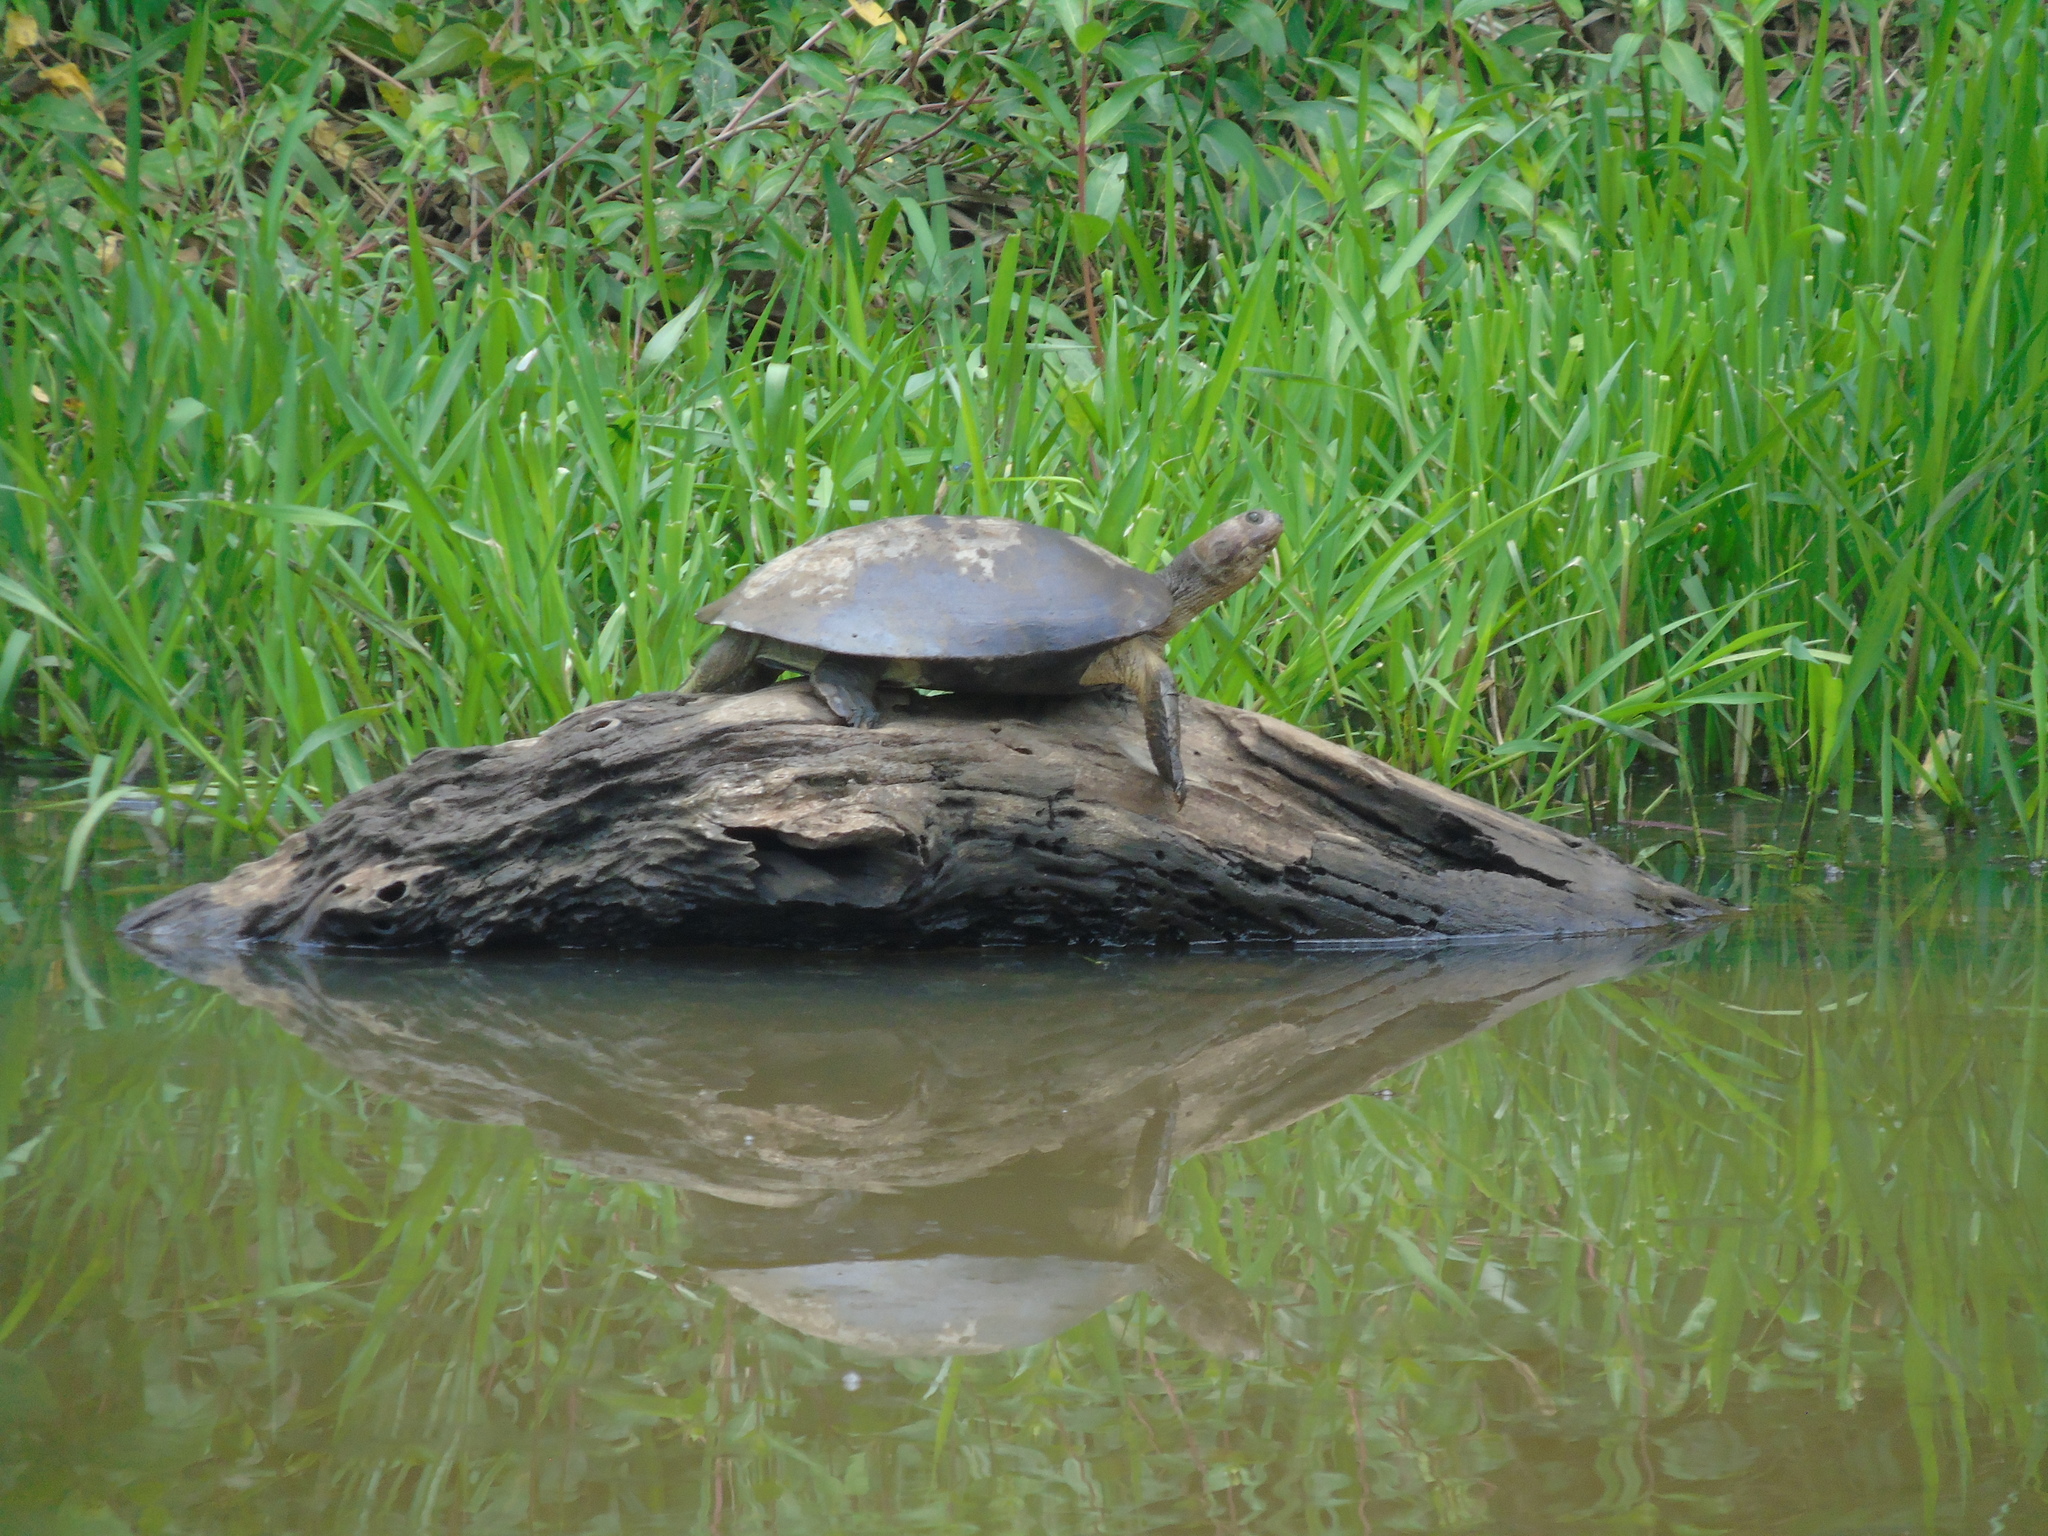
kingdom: Animalia
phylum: Chordata
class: Testudines
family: Podocnemididae
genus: Podocnemis
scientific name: Podocnemis vogli
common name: Savanna side-necked turtle
